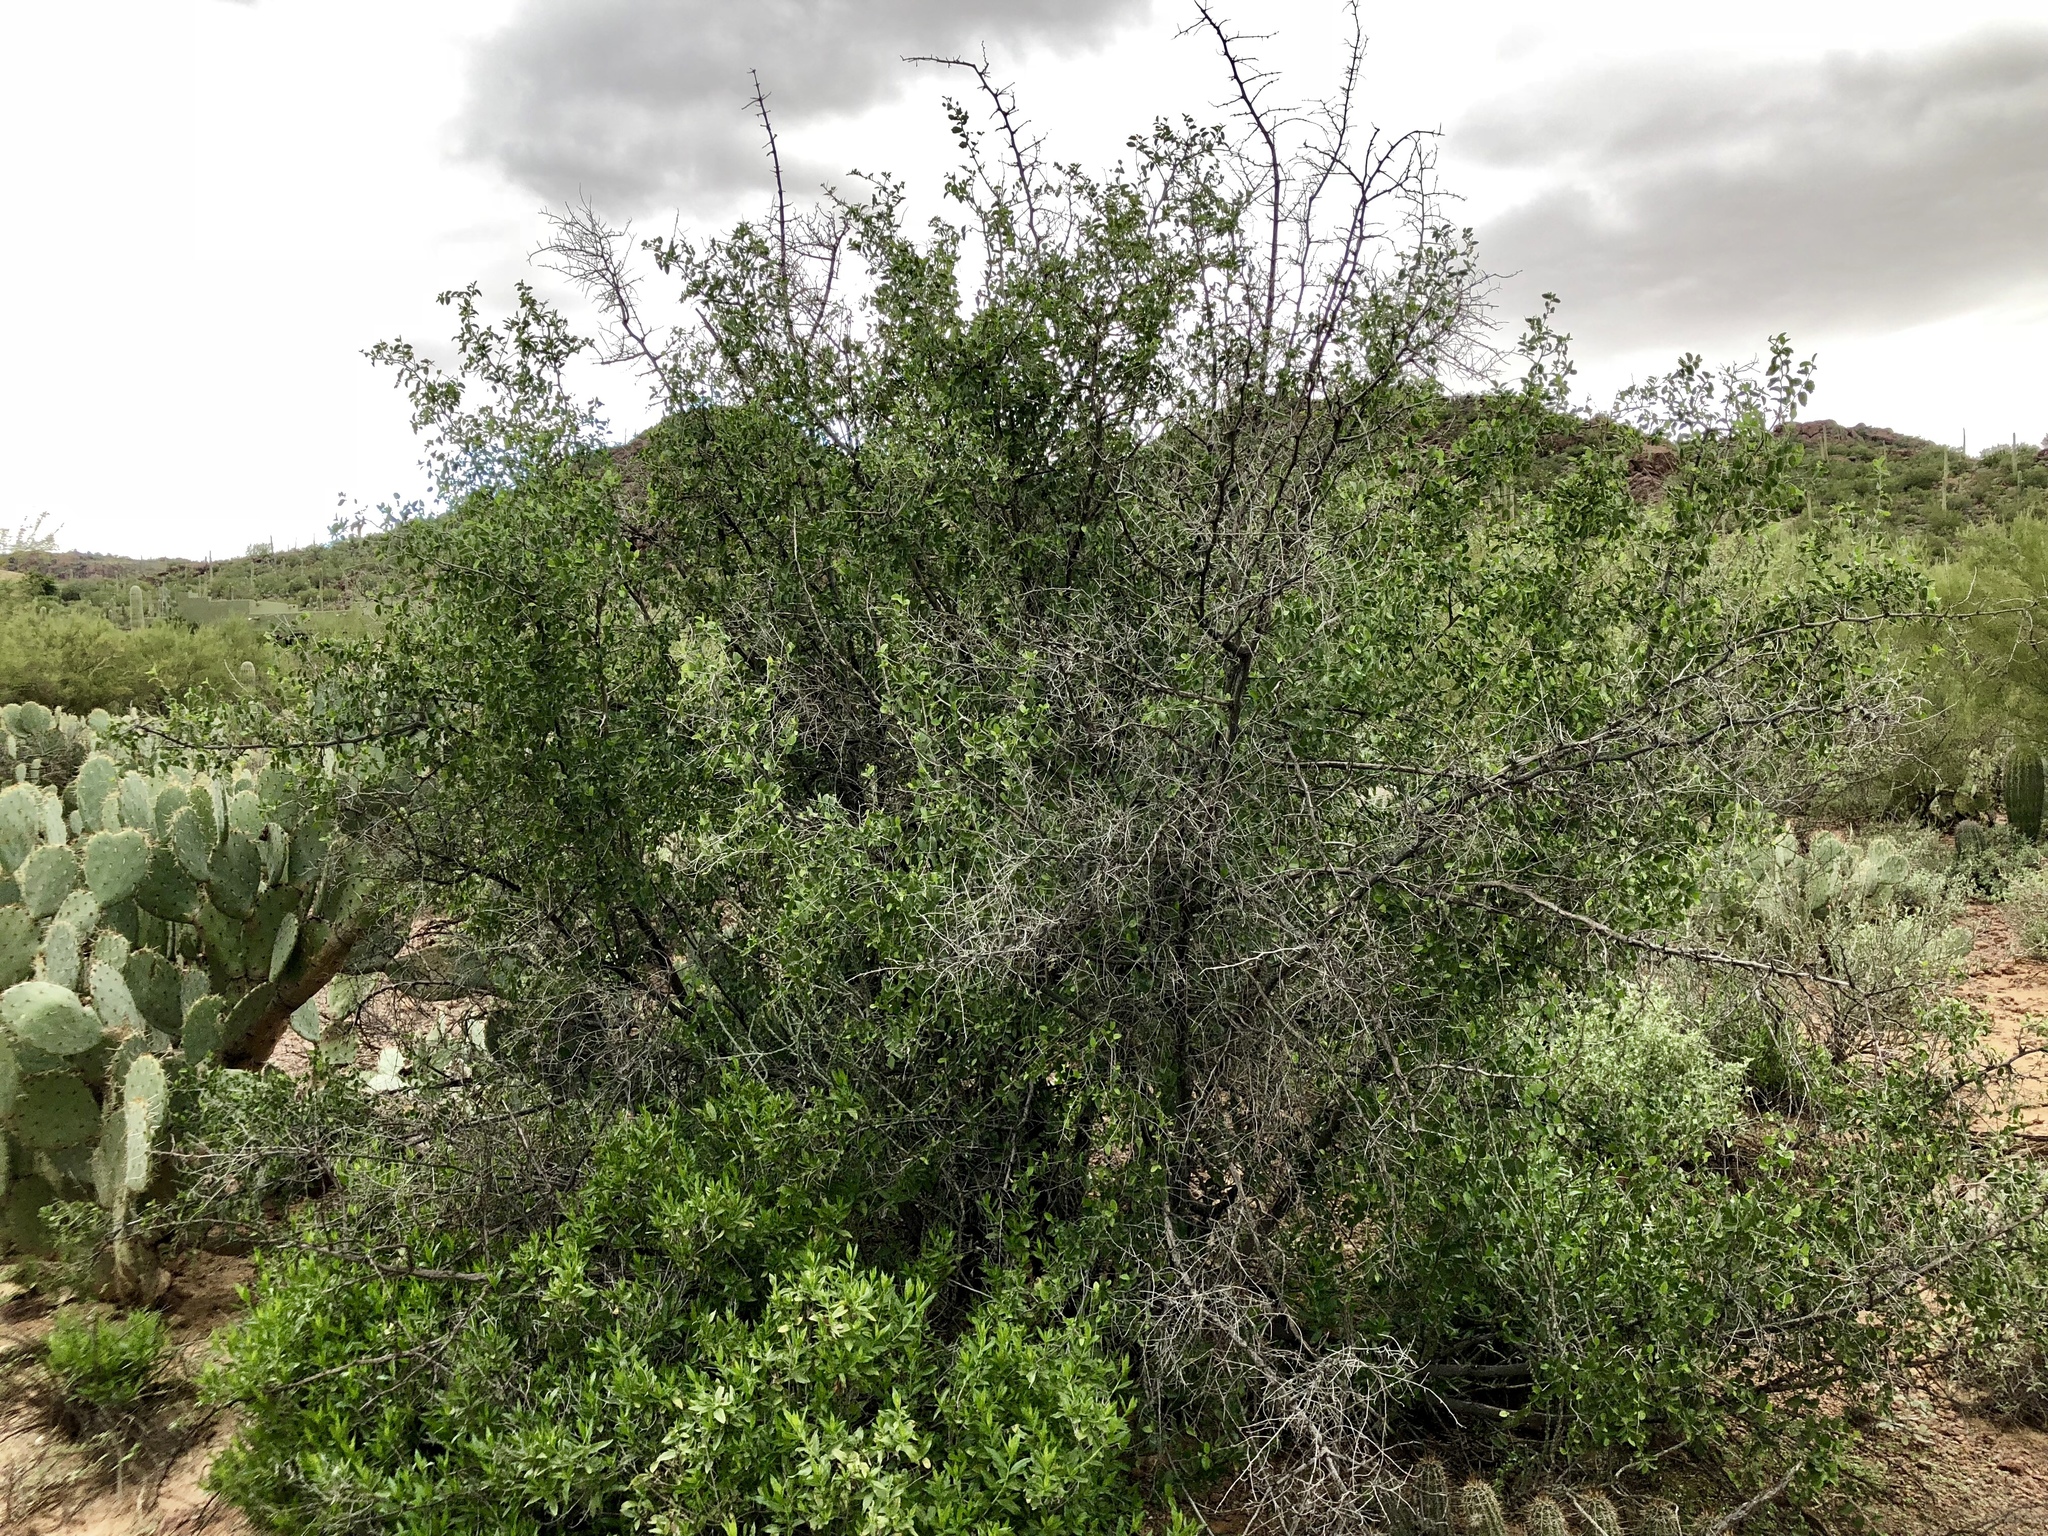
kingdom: Plantae
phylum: Tracheophyta
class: Magnoliopsida
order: Rosales
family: Cannabaceae
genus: Celtis
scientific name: Celtis pallida
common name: Desert hackberry
